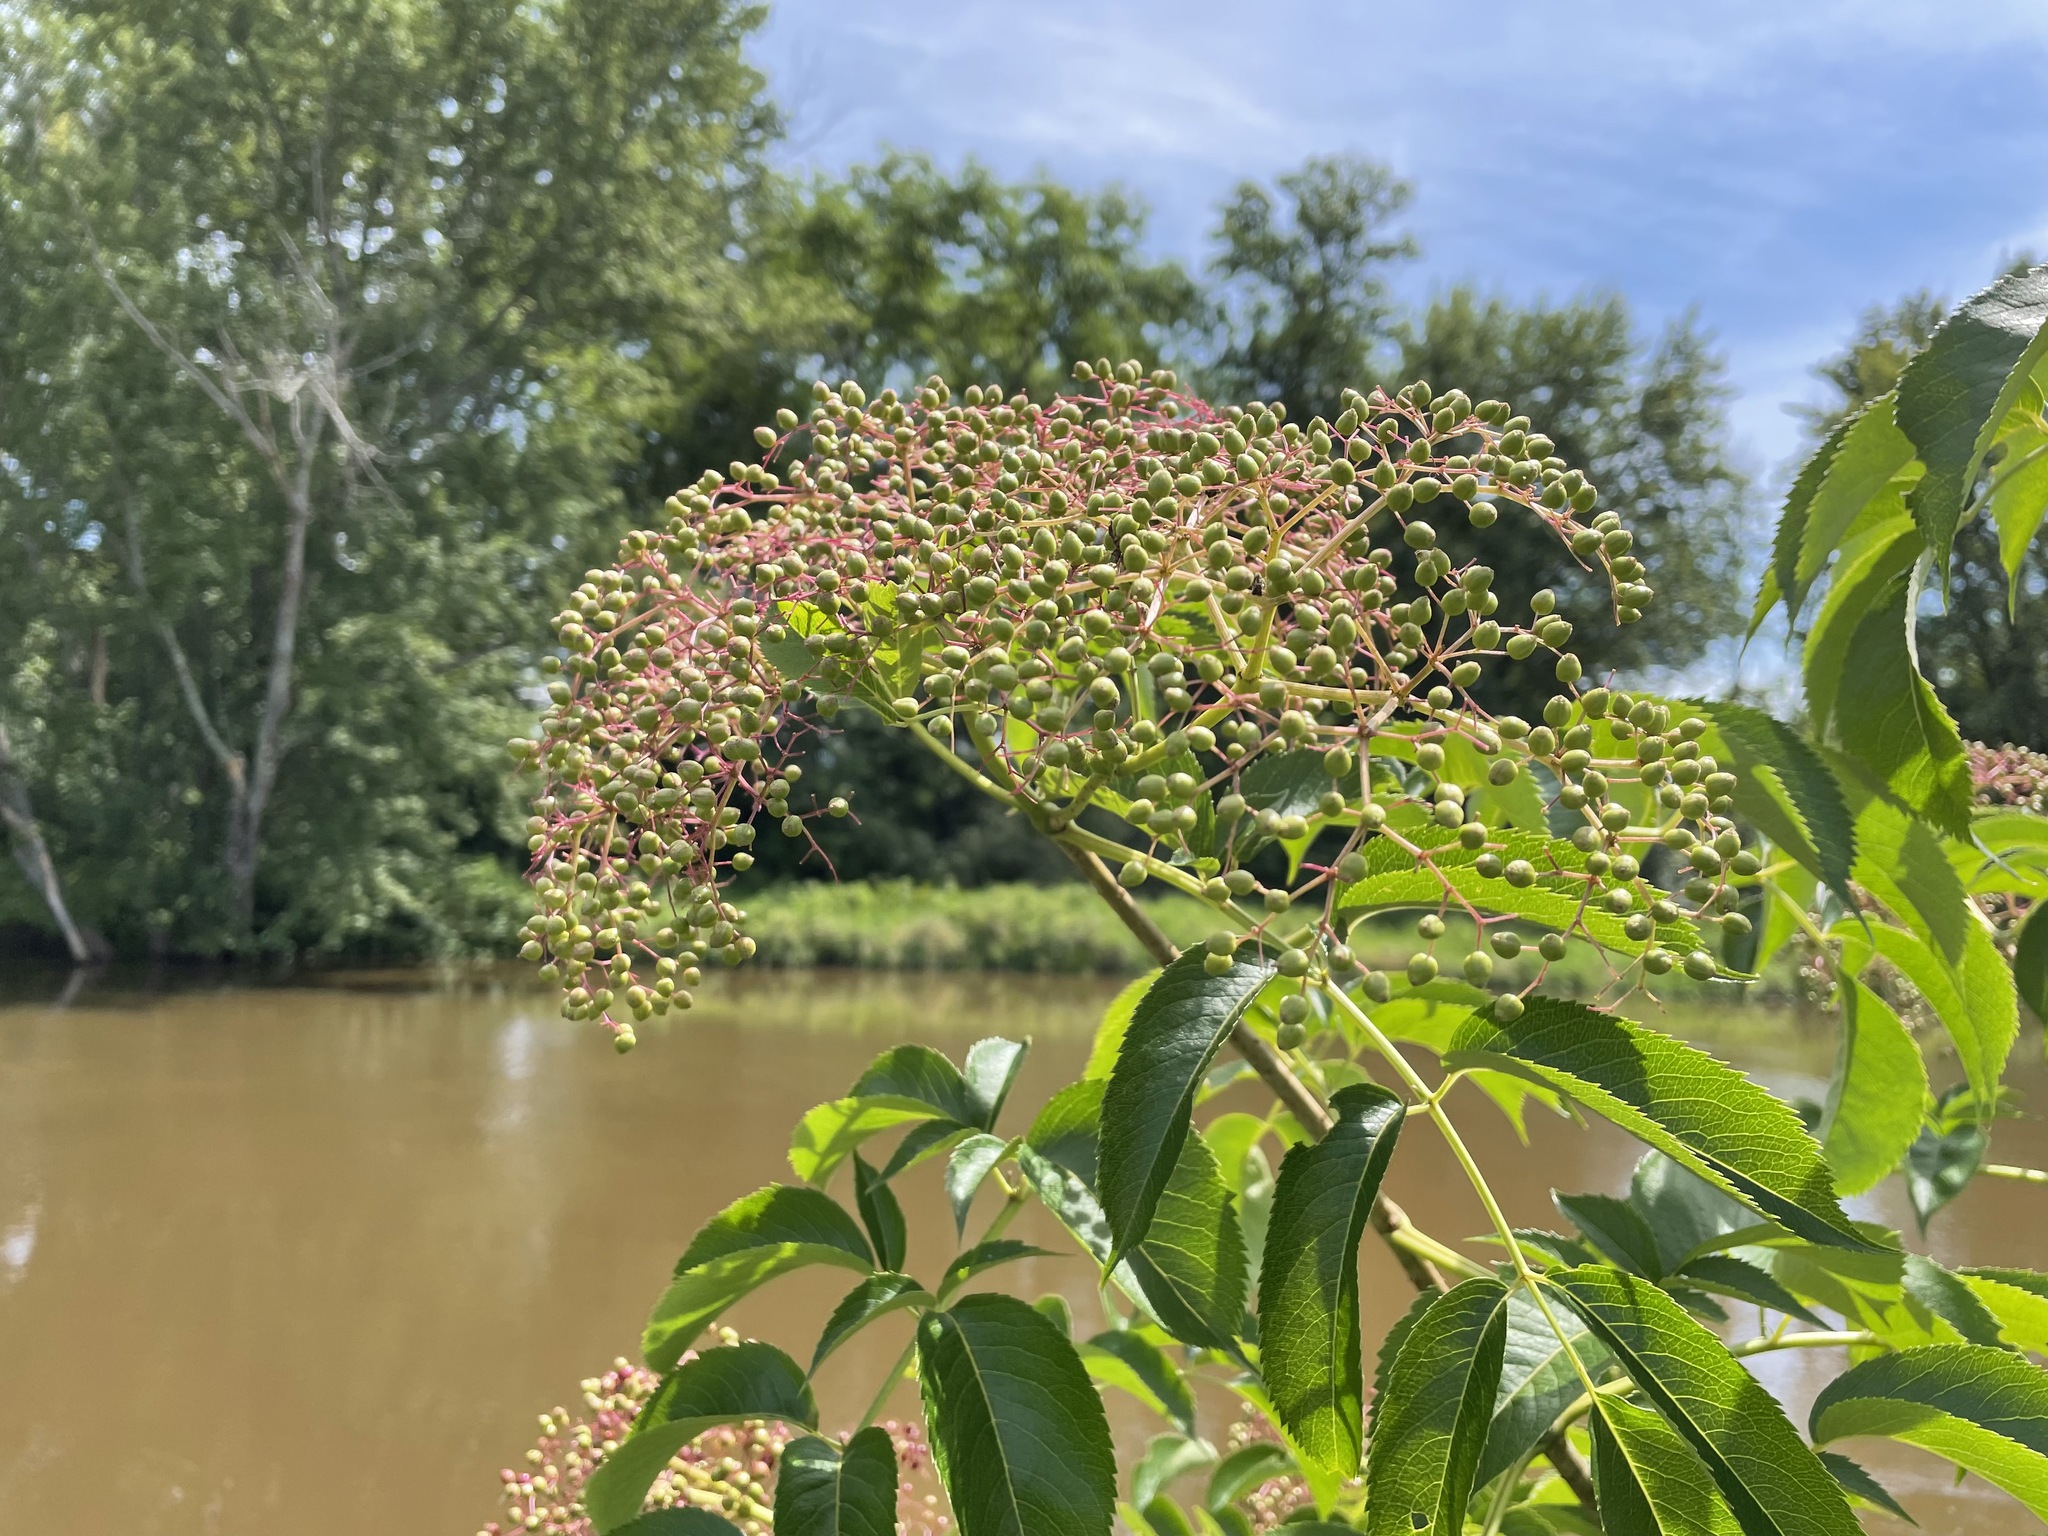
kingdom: Plantae
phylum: Tracheophyta
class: Magnoliopsida
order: Dipsacales
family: Viburnaceae
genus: Sambucus
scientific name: Sambucus canadensis
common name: American elder
